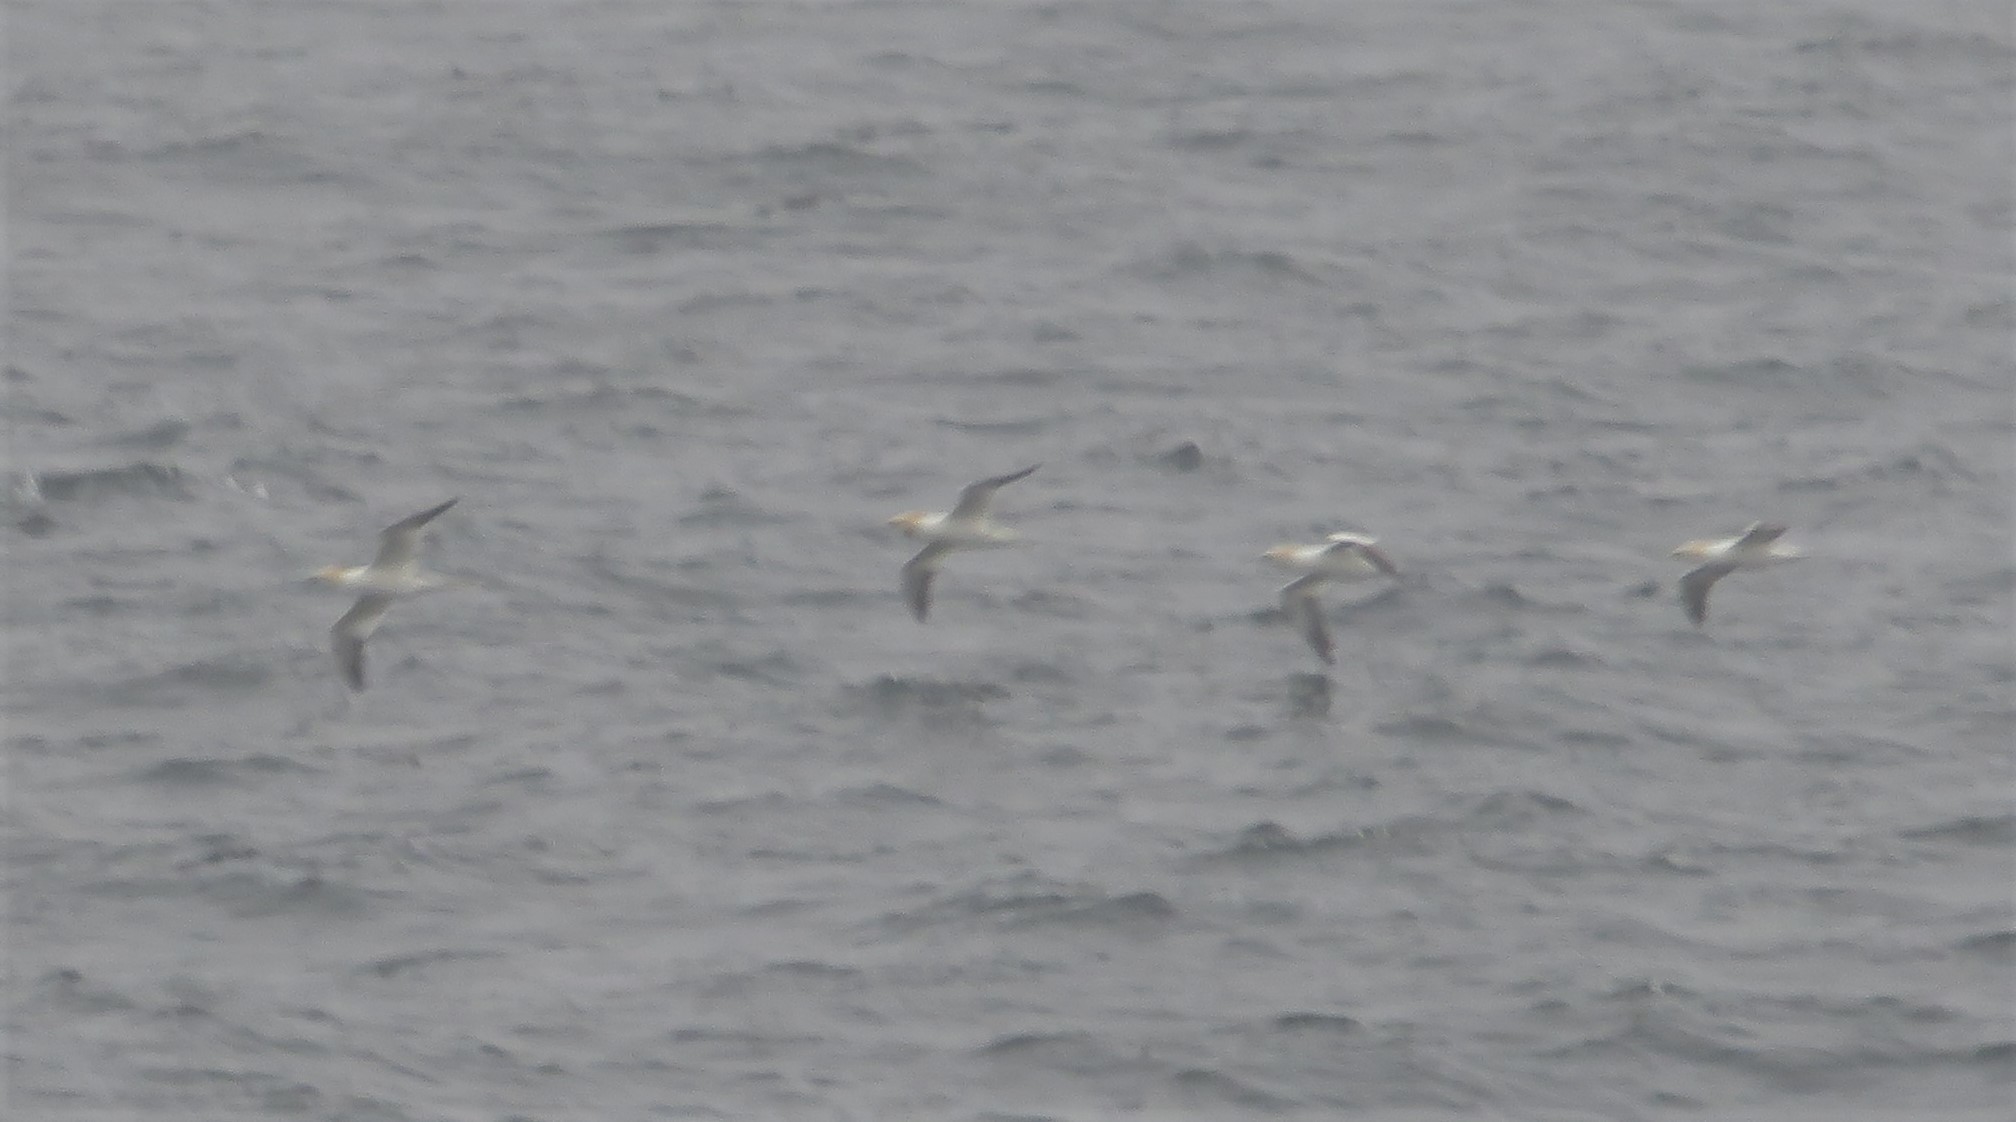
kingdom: Animalia
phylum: Chordata
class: Aves
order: Suliformes
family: Sulidae
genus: Morus
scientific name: Morus bassanus
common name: Northern gannet
